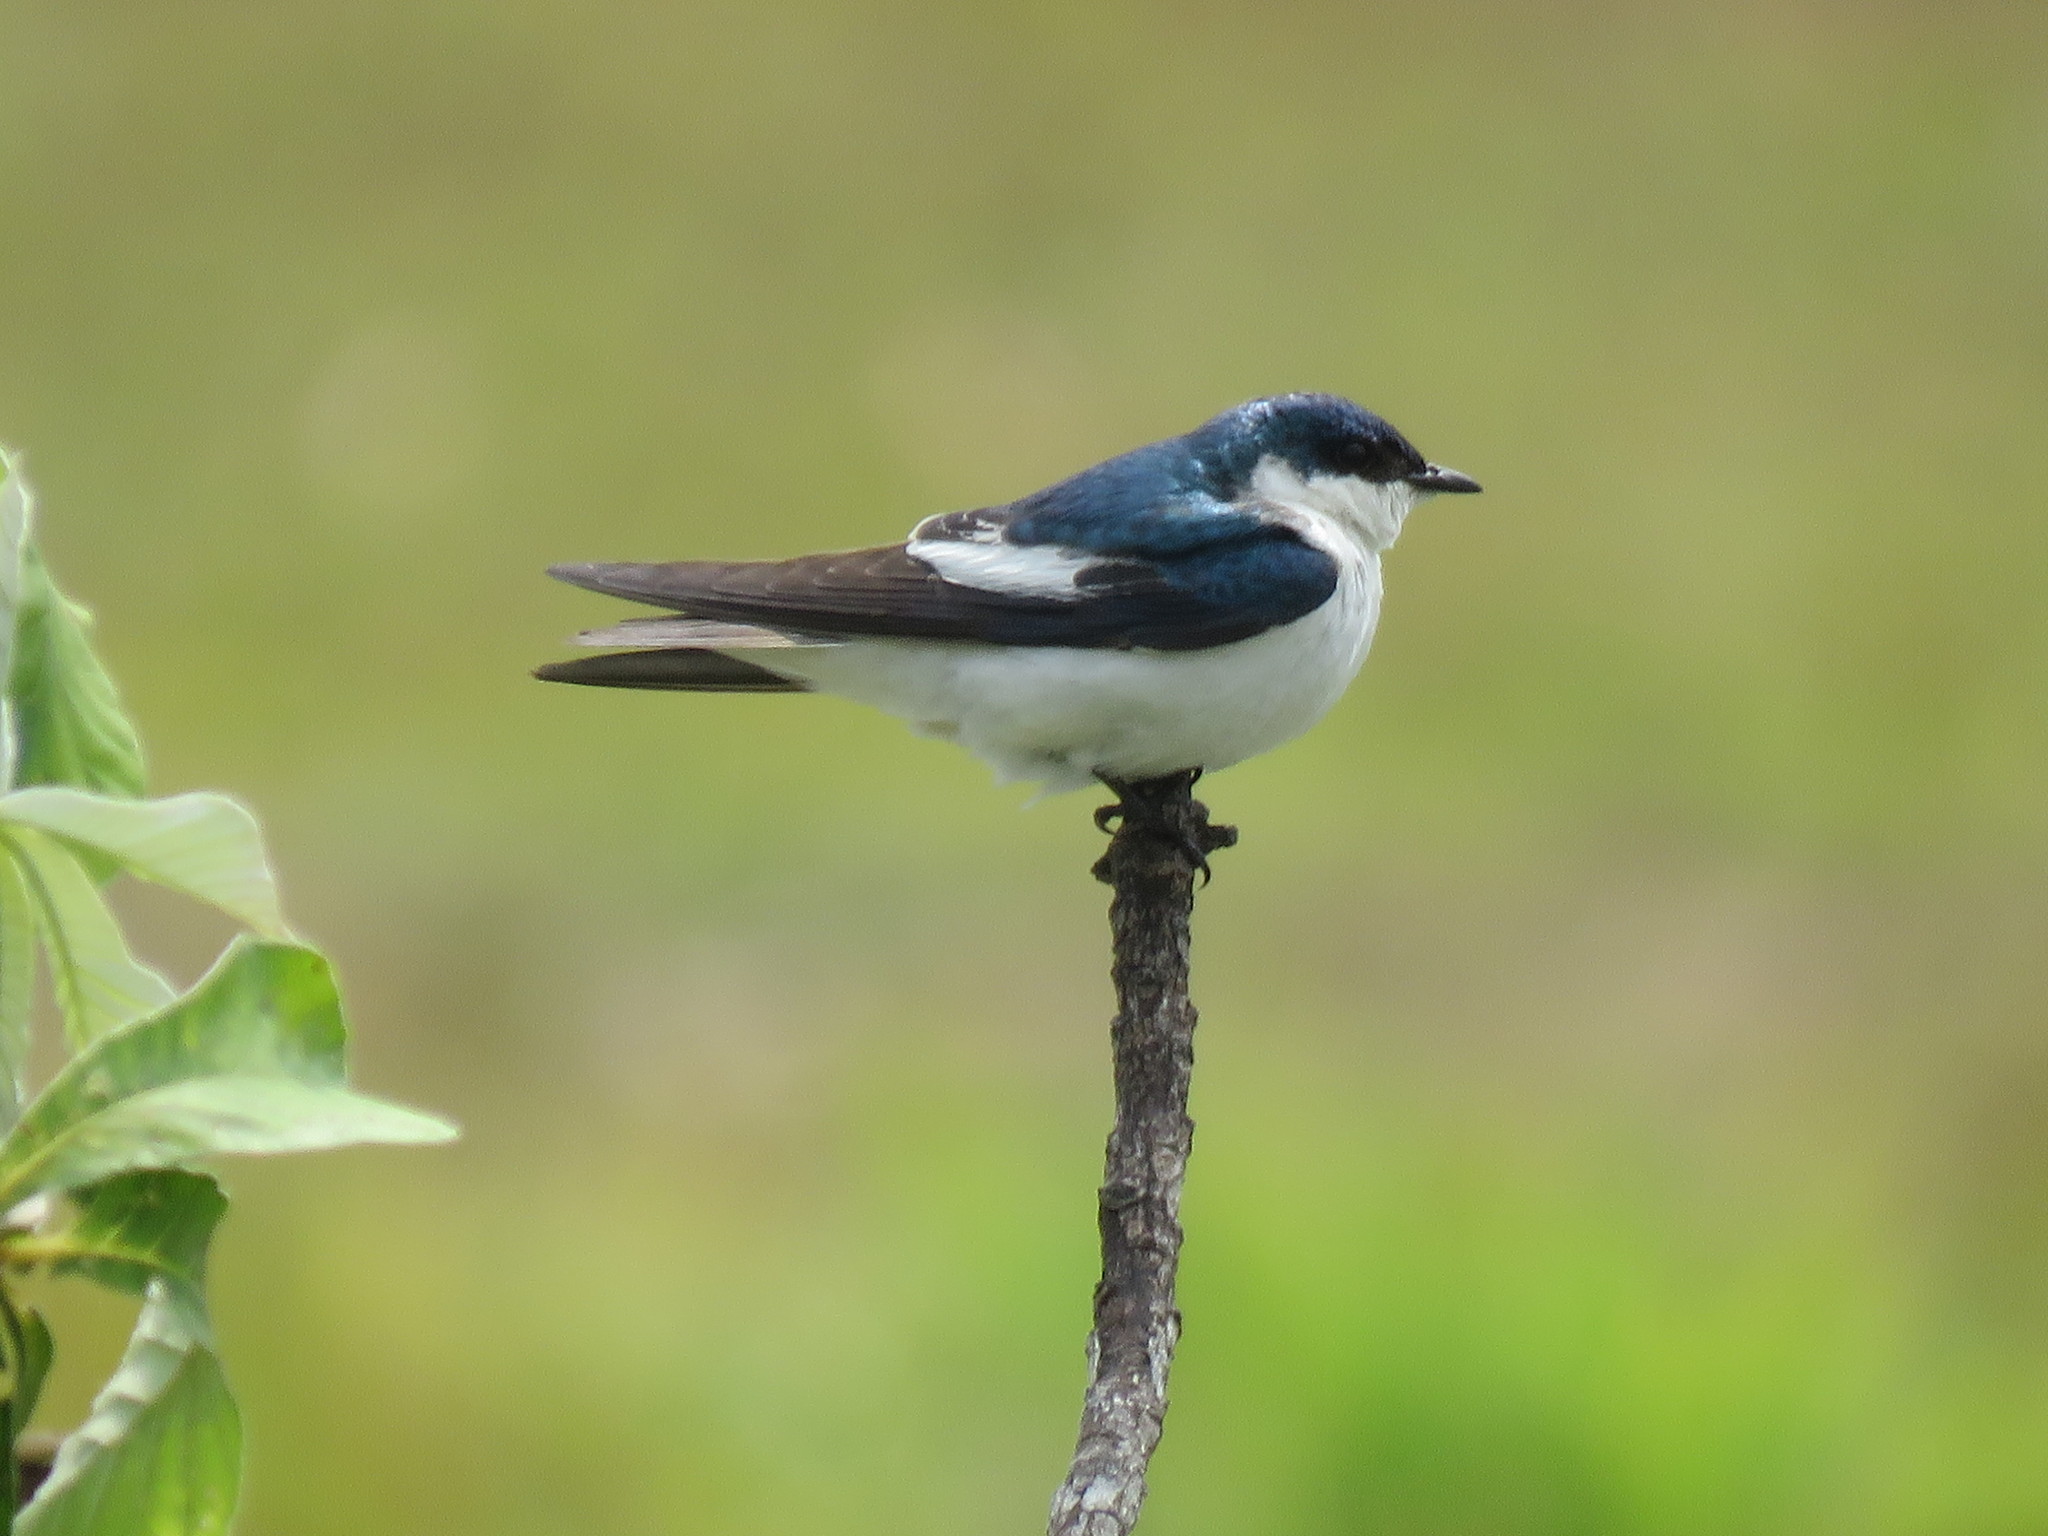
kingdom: Animalia
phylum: Chordata
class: Aves
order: Passeriformes
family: Hirundinidae
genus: Tachycineta
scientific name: Tachycineta albiventer
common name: White-winged swallow
